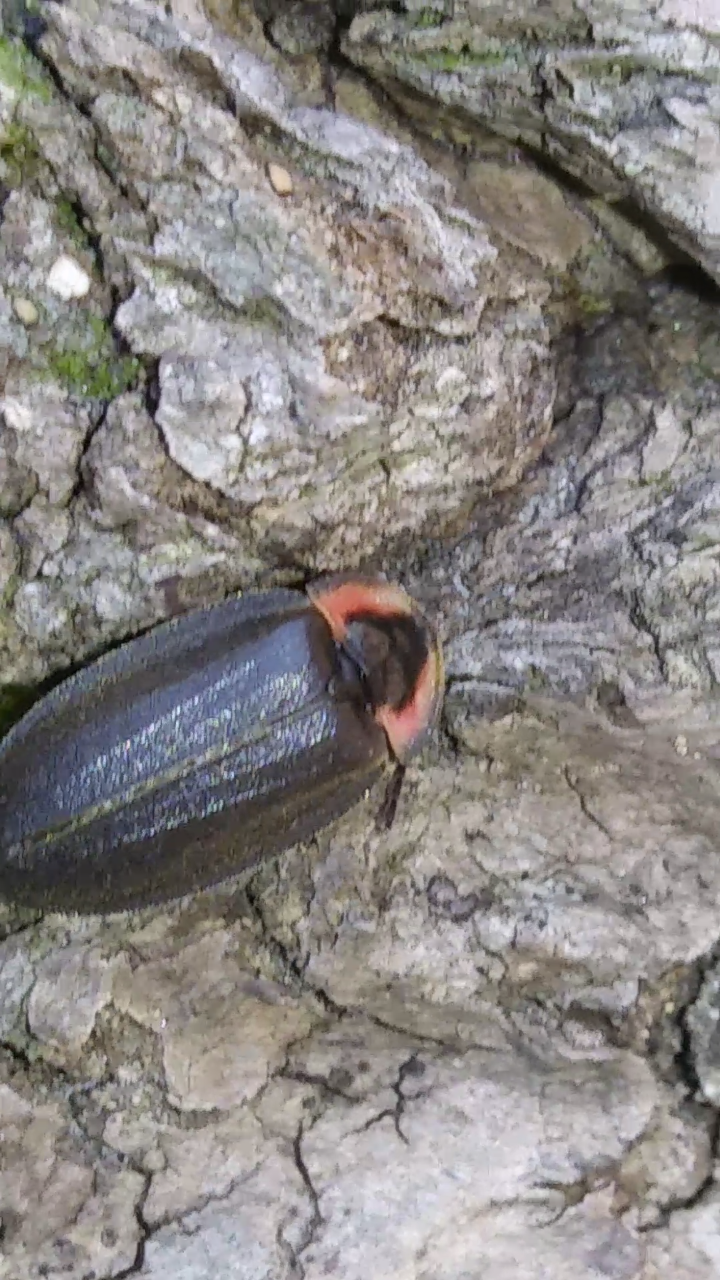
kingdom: Animalia
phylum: Arthropoda
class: Insecta
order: Coleoptera
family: Lampyridae
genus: Ellychnia
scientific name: Ellychnia
